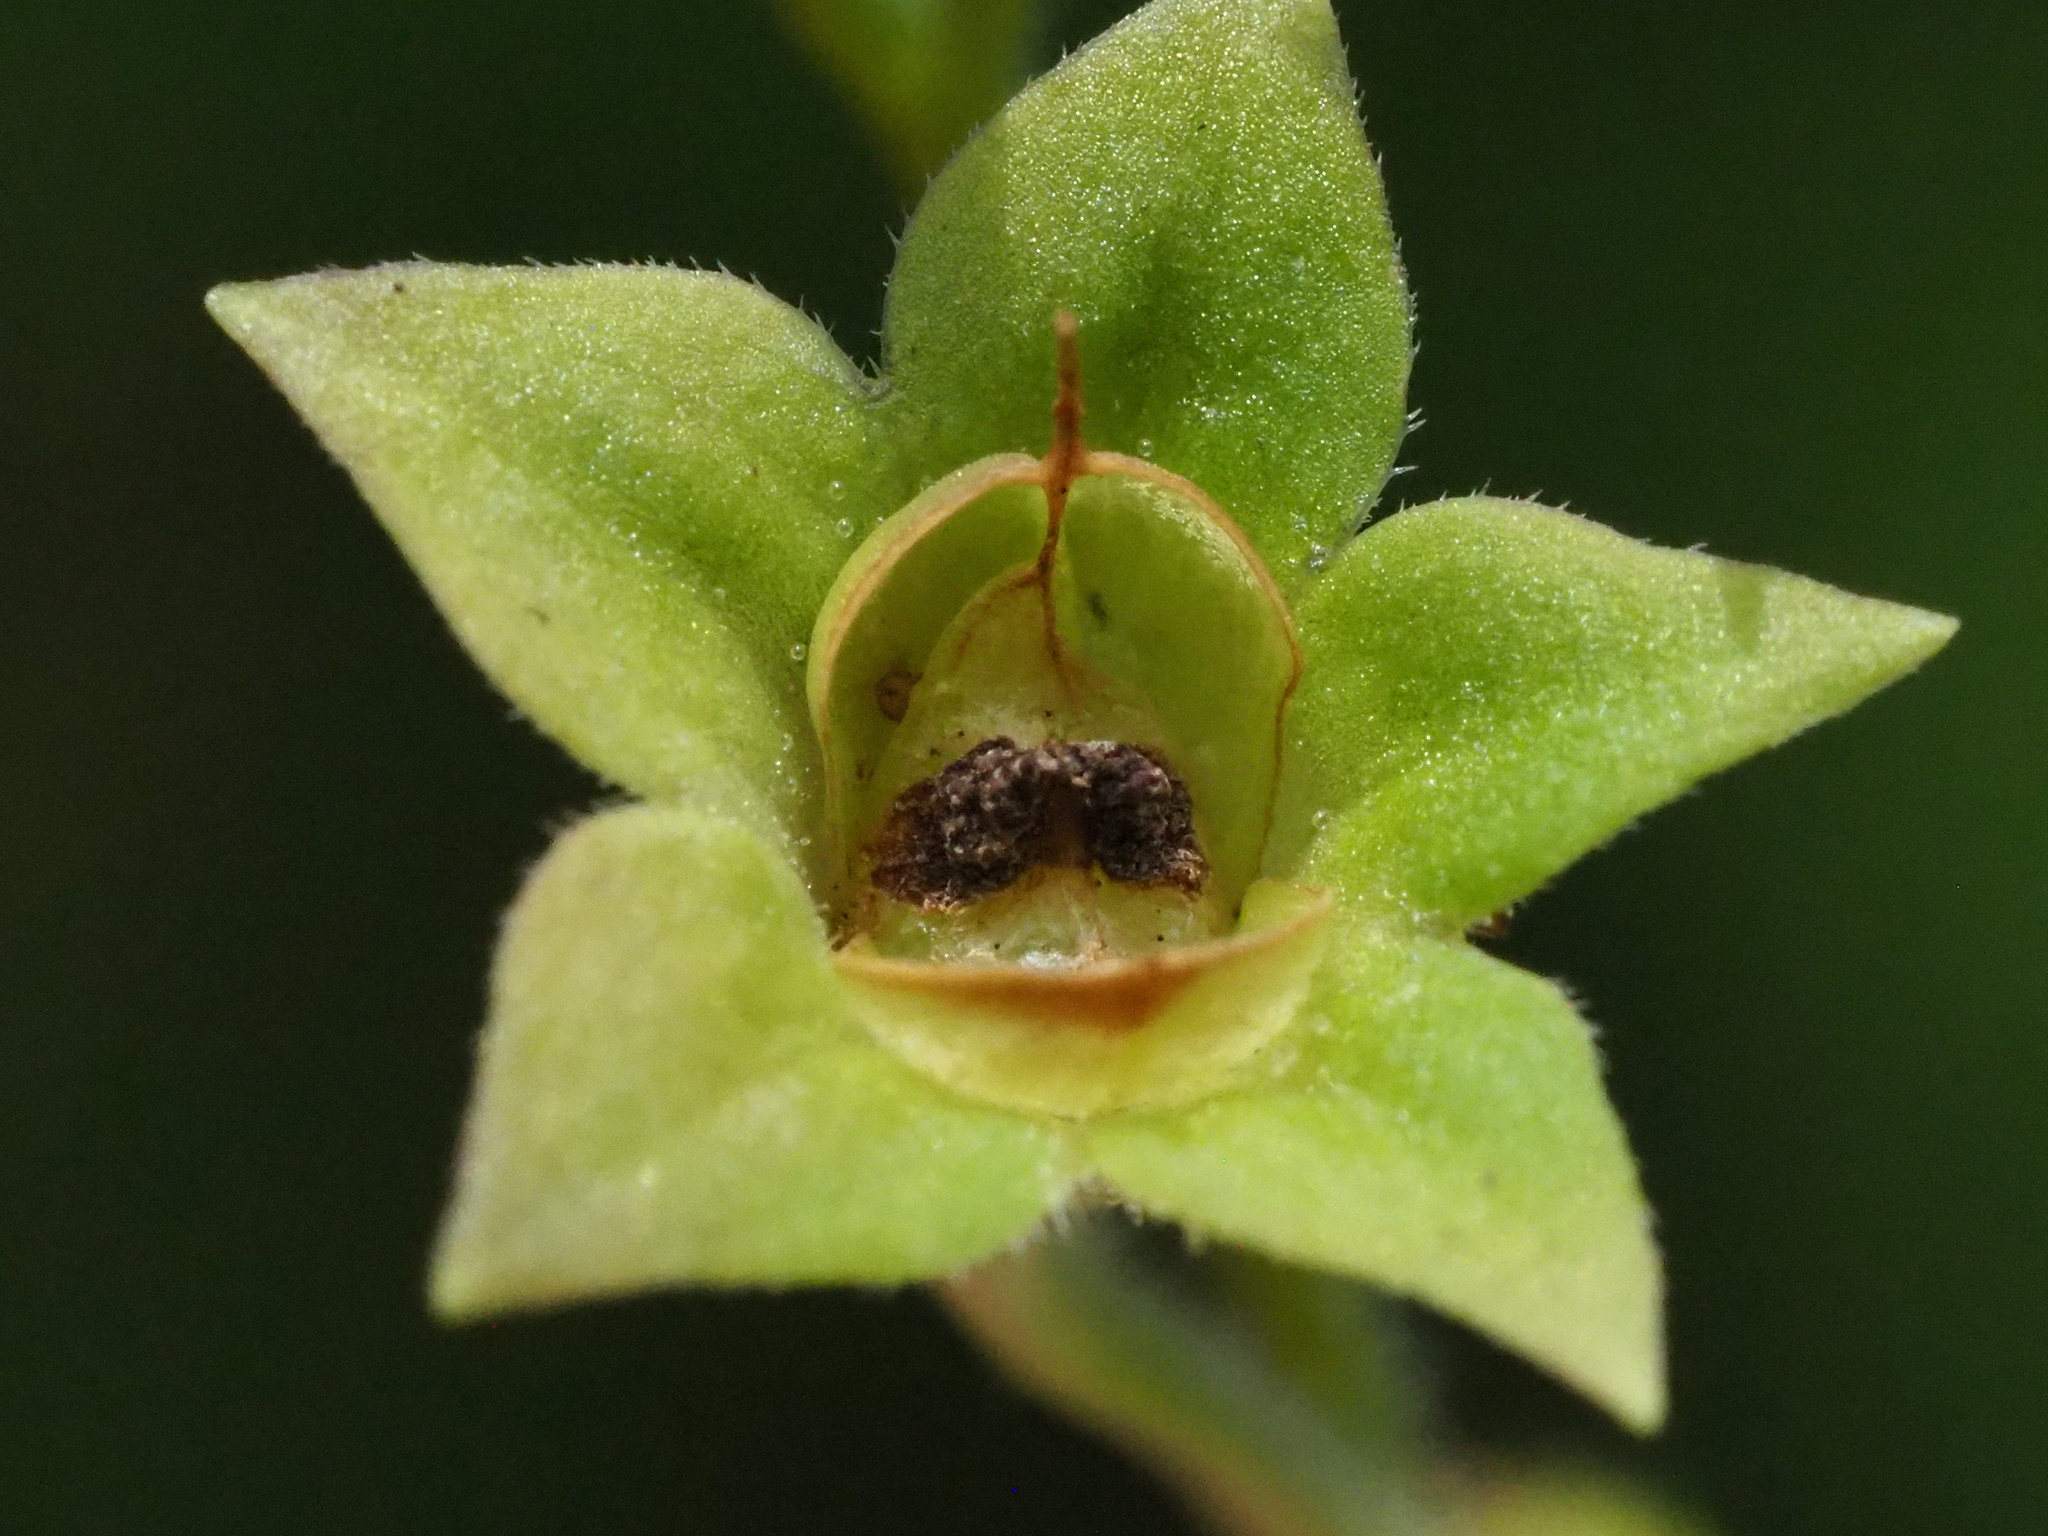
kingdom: Plantae
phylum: Tracheophyta
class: Magnoliopsida
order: Lamiales
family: Mazaceae
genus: Mazus
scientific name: Mazus fauriei
